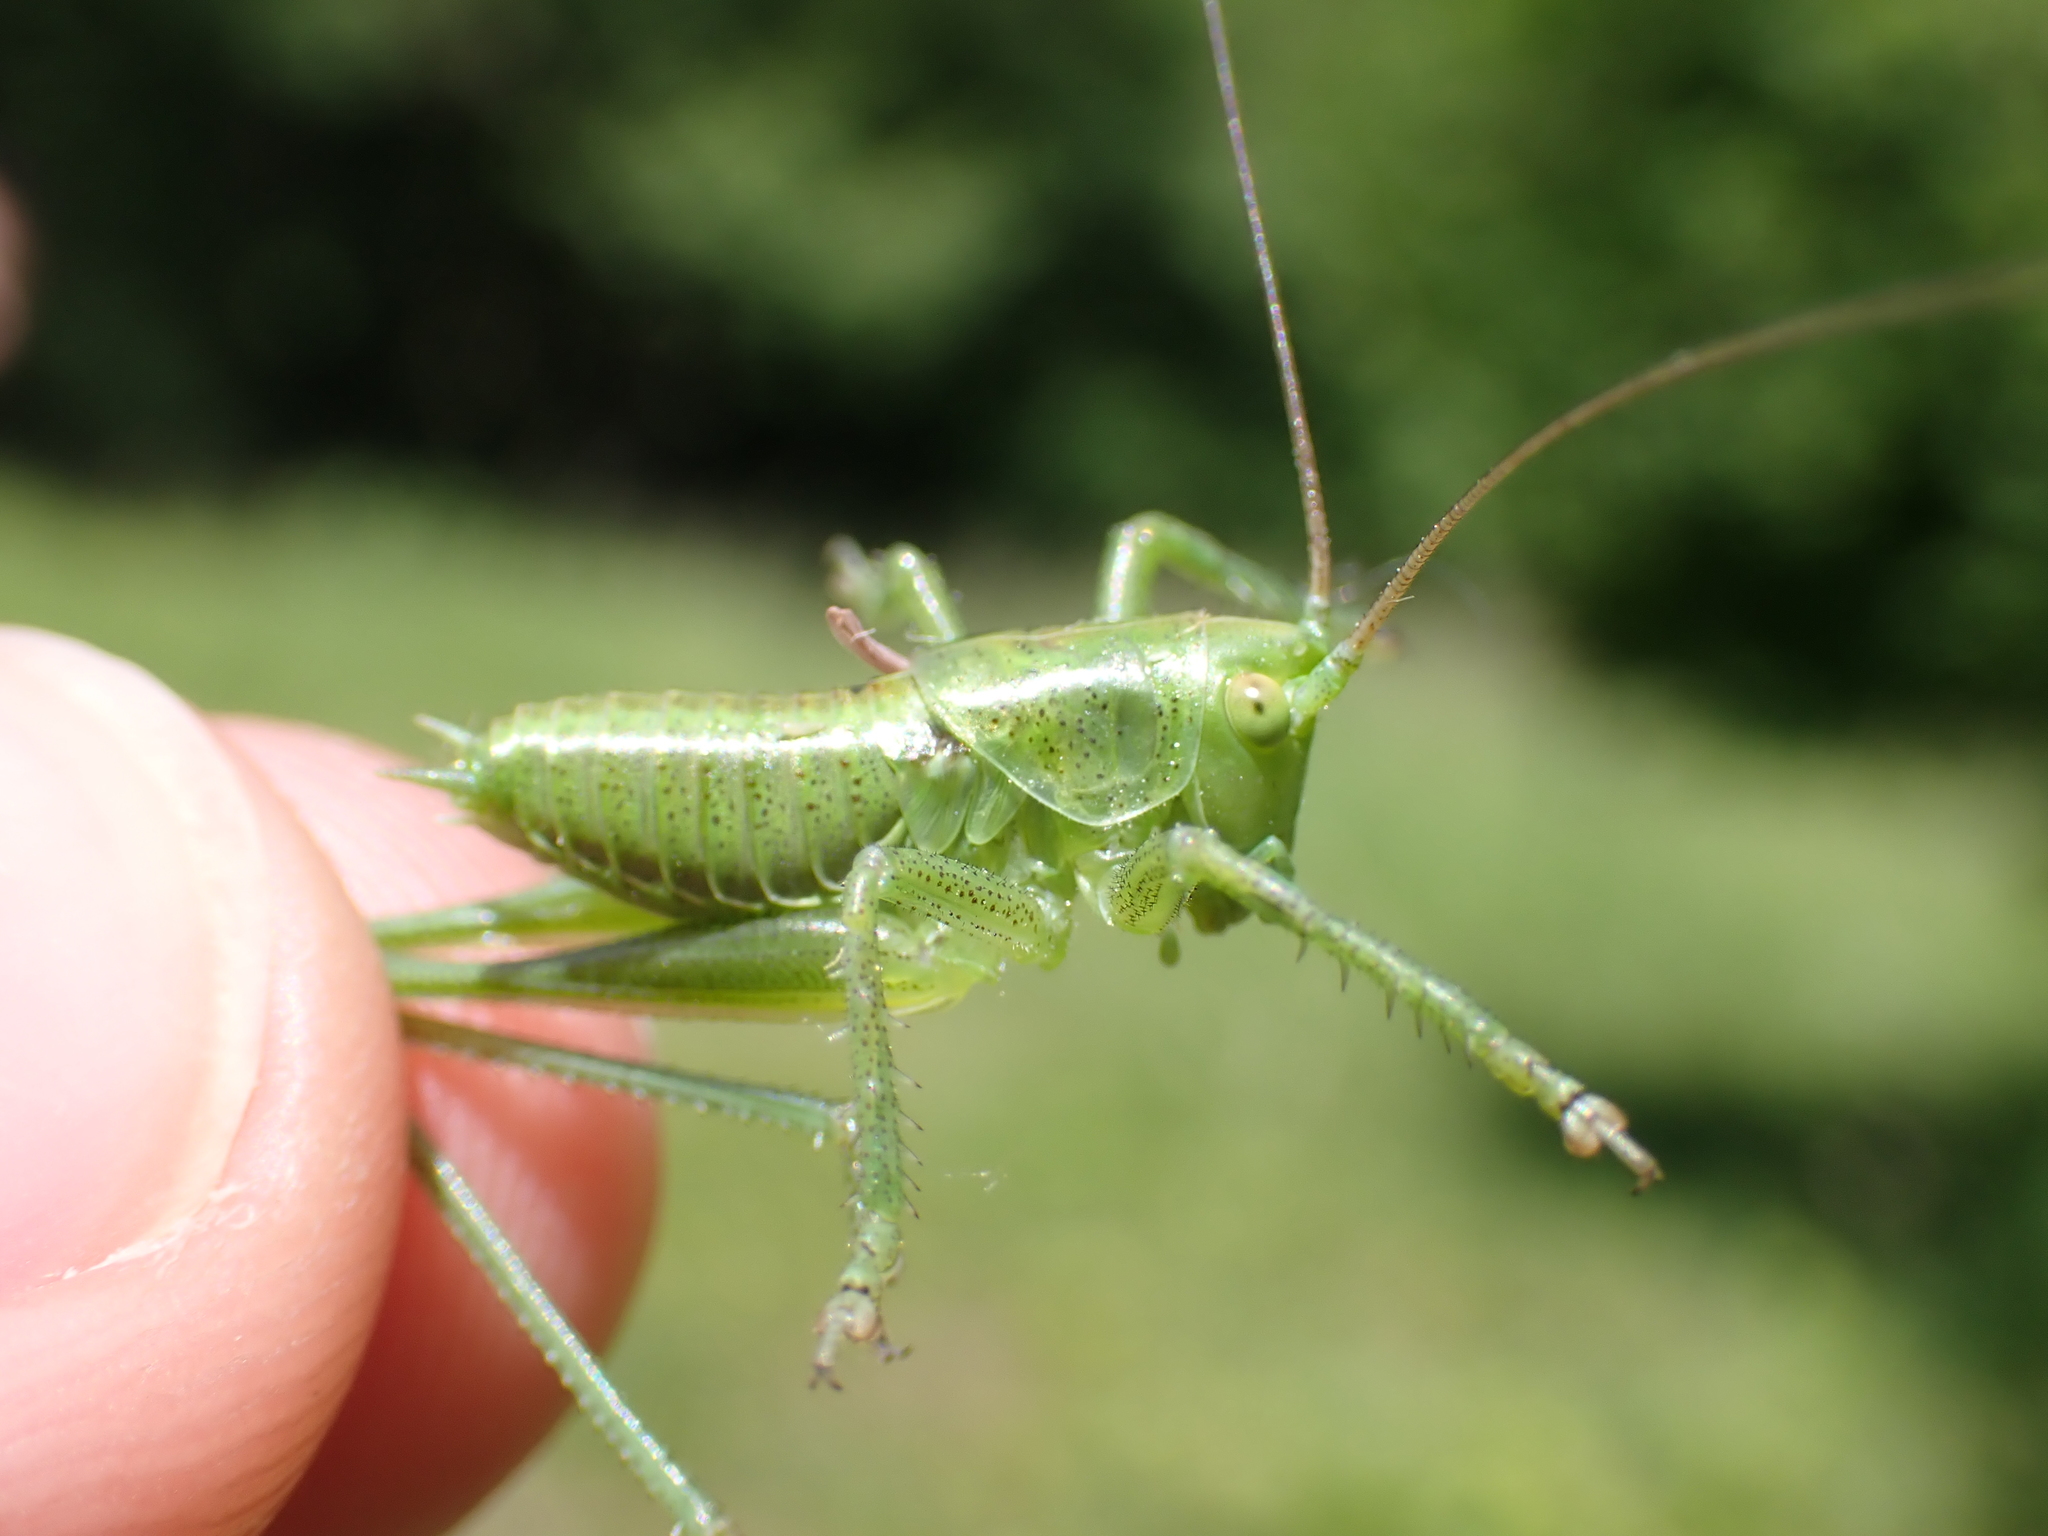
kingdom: Animalia
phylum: Arthropoda
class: Insecta
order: Orthoptera
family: Tettigoniidae
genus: Tettigonia
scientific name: Tettigonia viridissima
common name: Great green bush-cricket
